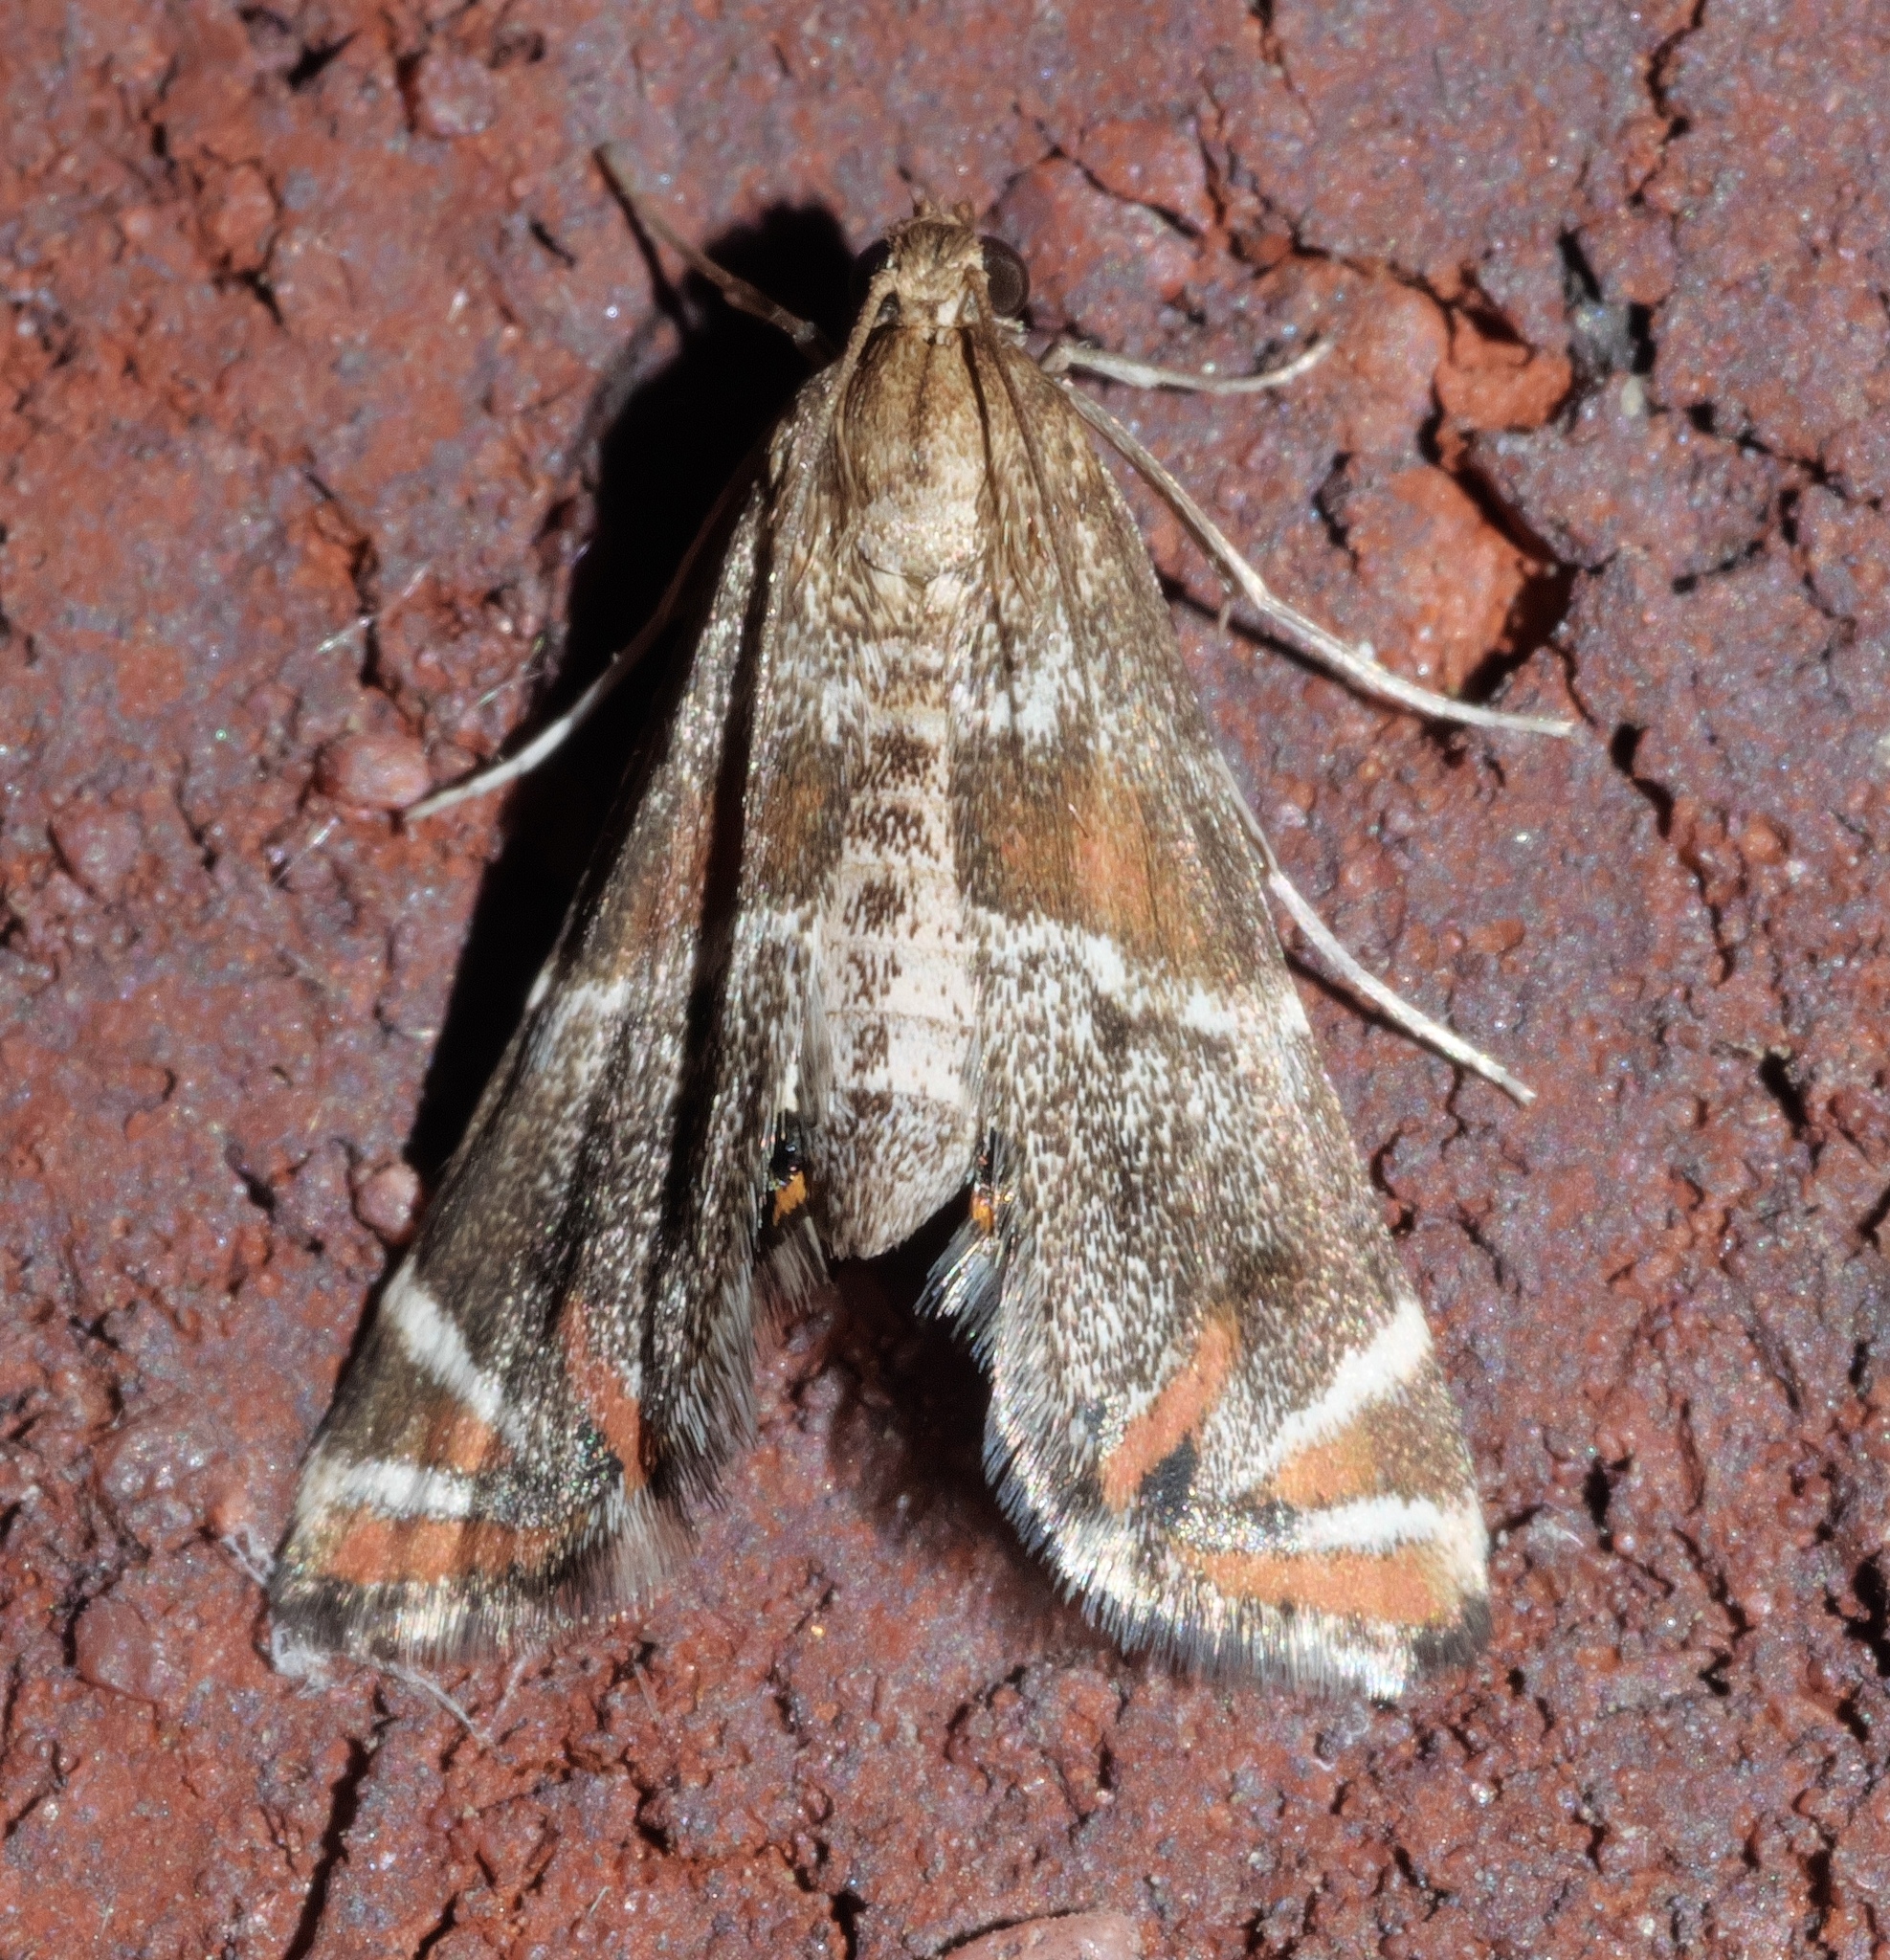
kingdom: Animalia
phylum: Arthropoda
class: Insecta
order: Lepidoptera
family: Crambidae
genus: Petrophila
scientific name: Petrophila jaliscalis
